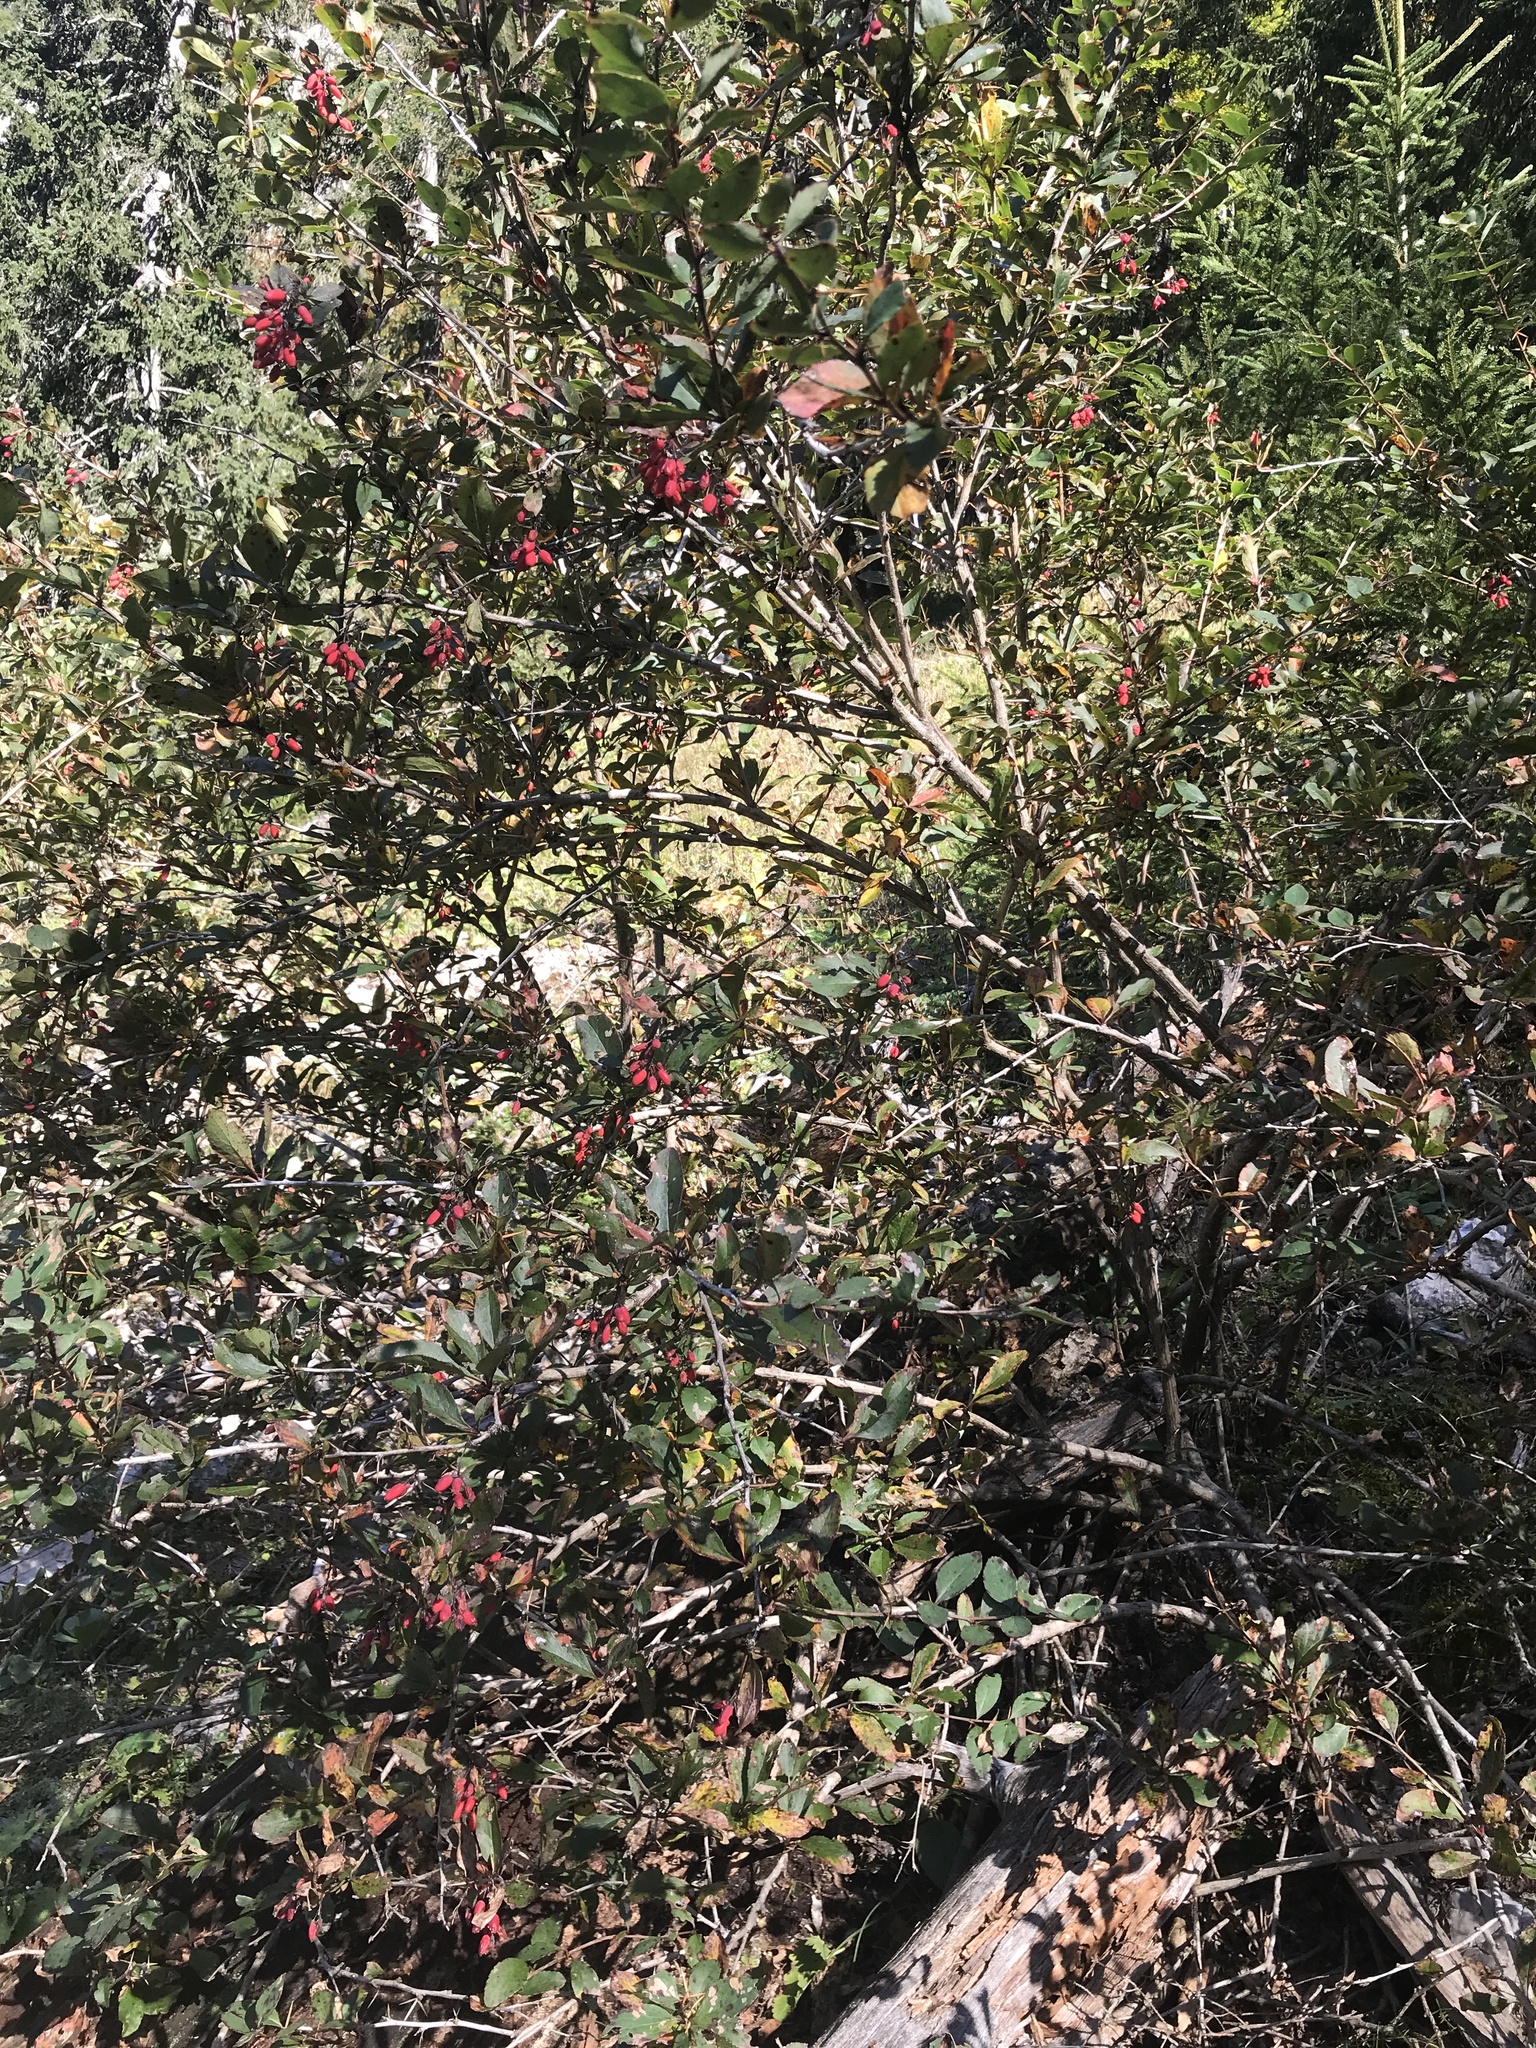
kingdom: Plantae
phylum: Tracheophyta
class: Magnoliopsida
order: Ranunculales
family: Berberidaceae
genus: Berberis
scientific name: Berberis vulgaris
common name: Barberry
